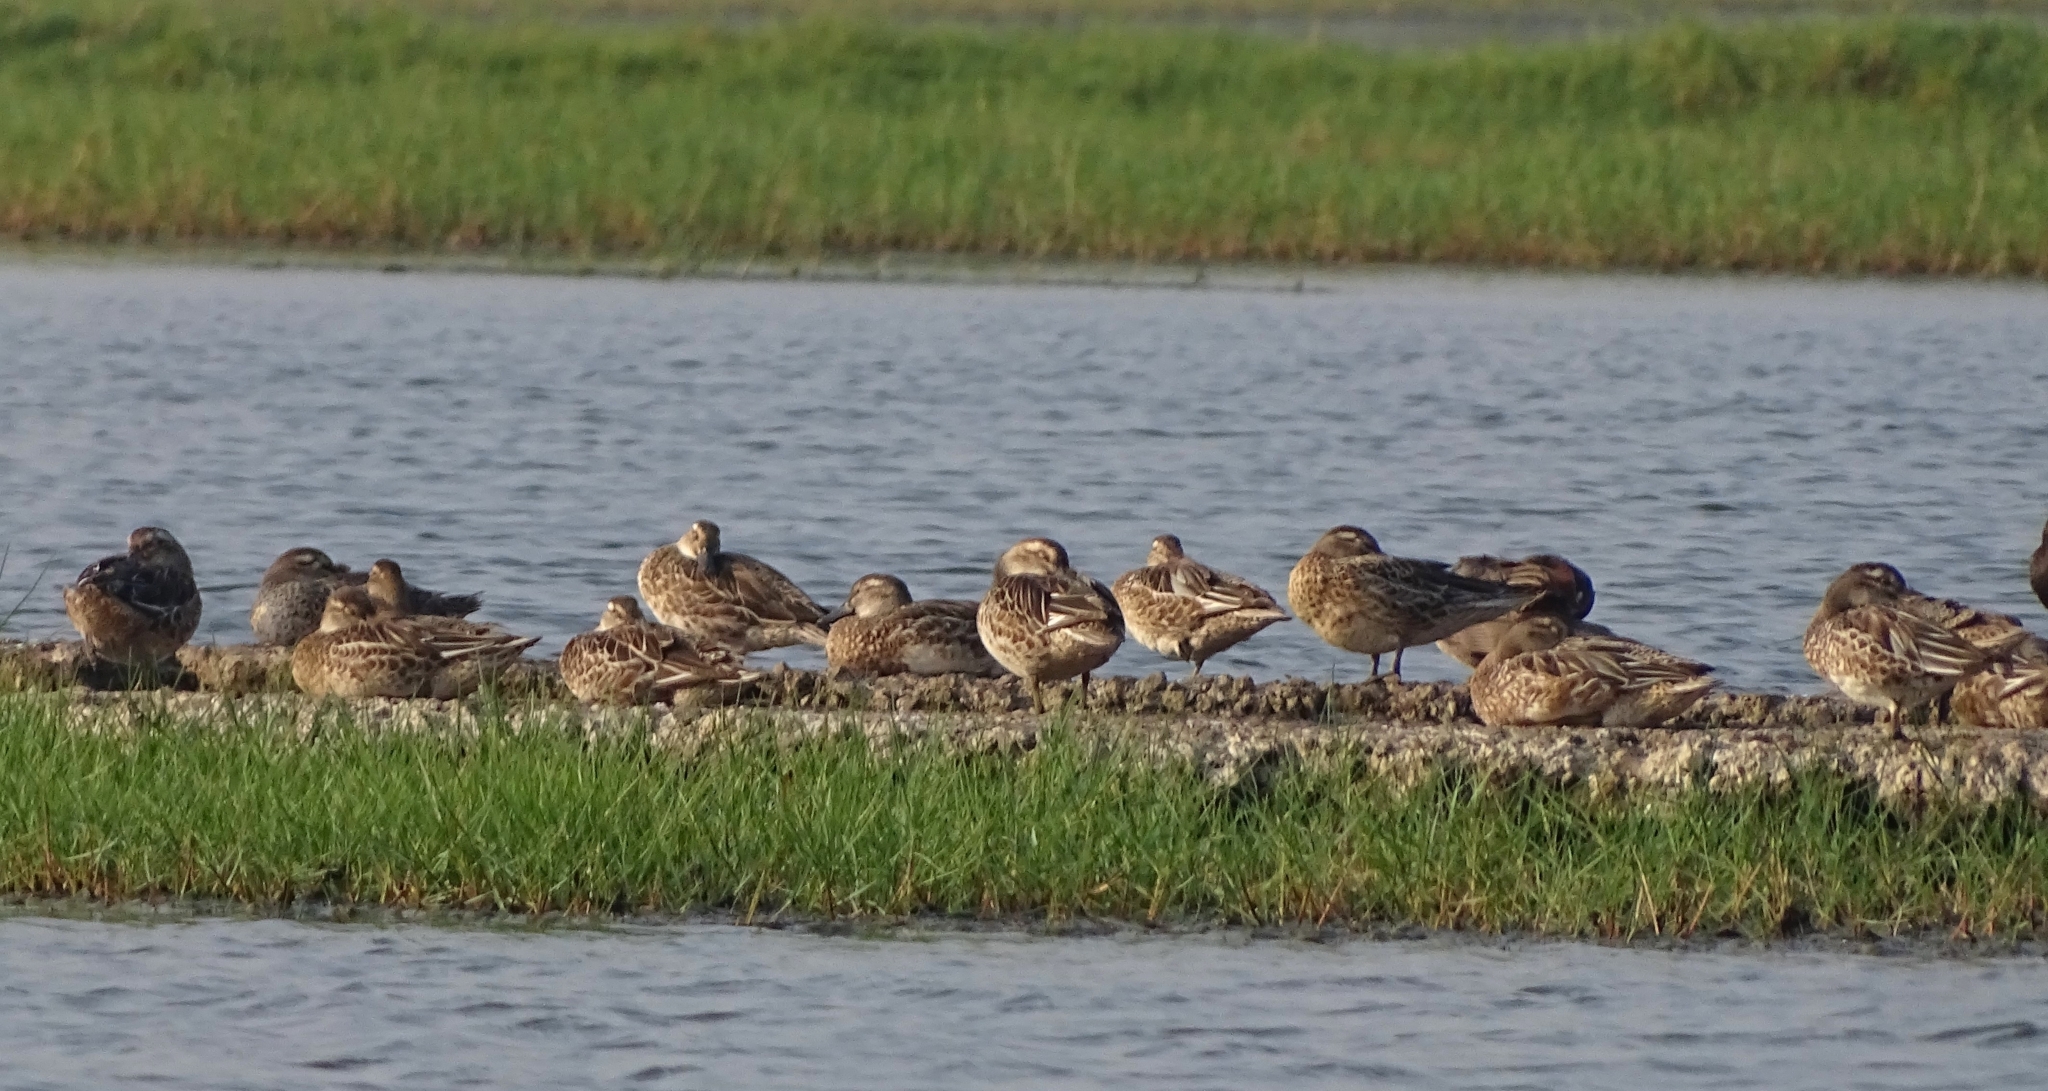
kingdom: Animalia
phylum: Chordata
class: Aves
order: Anseriformes
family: Anatidae
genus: Spatula
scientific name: Spatula querquedula
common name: Garganey
